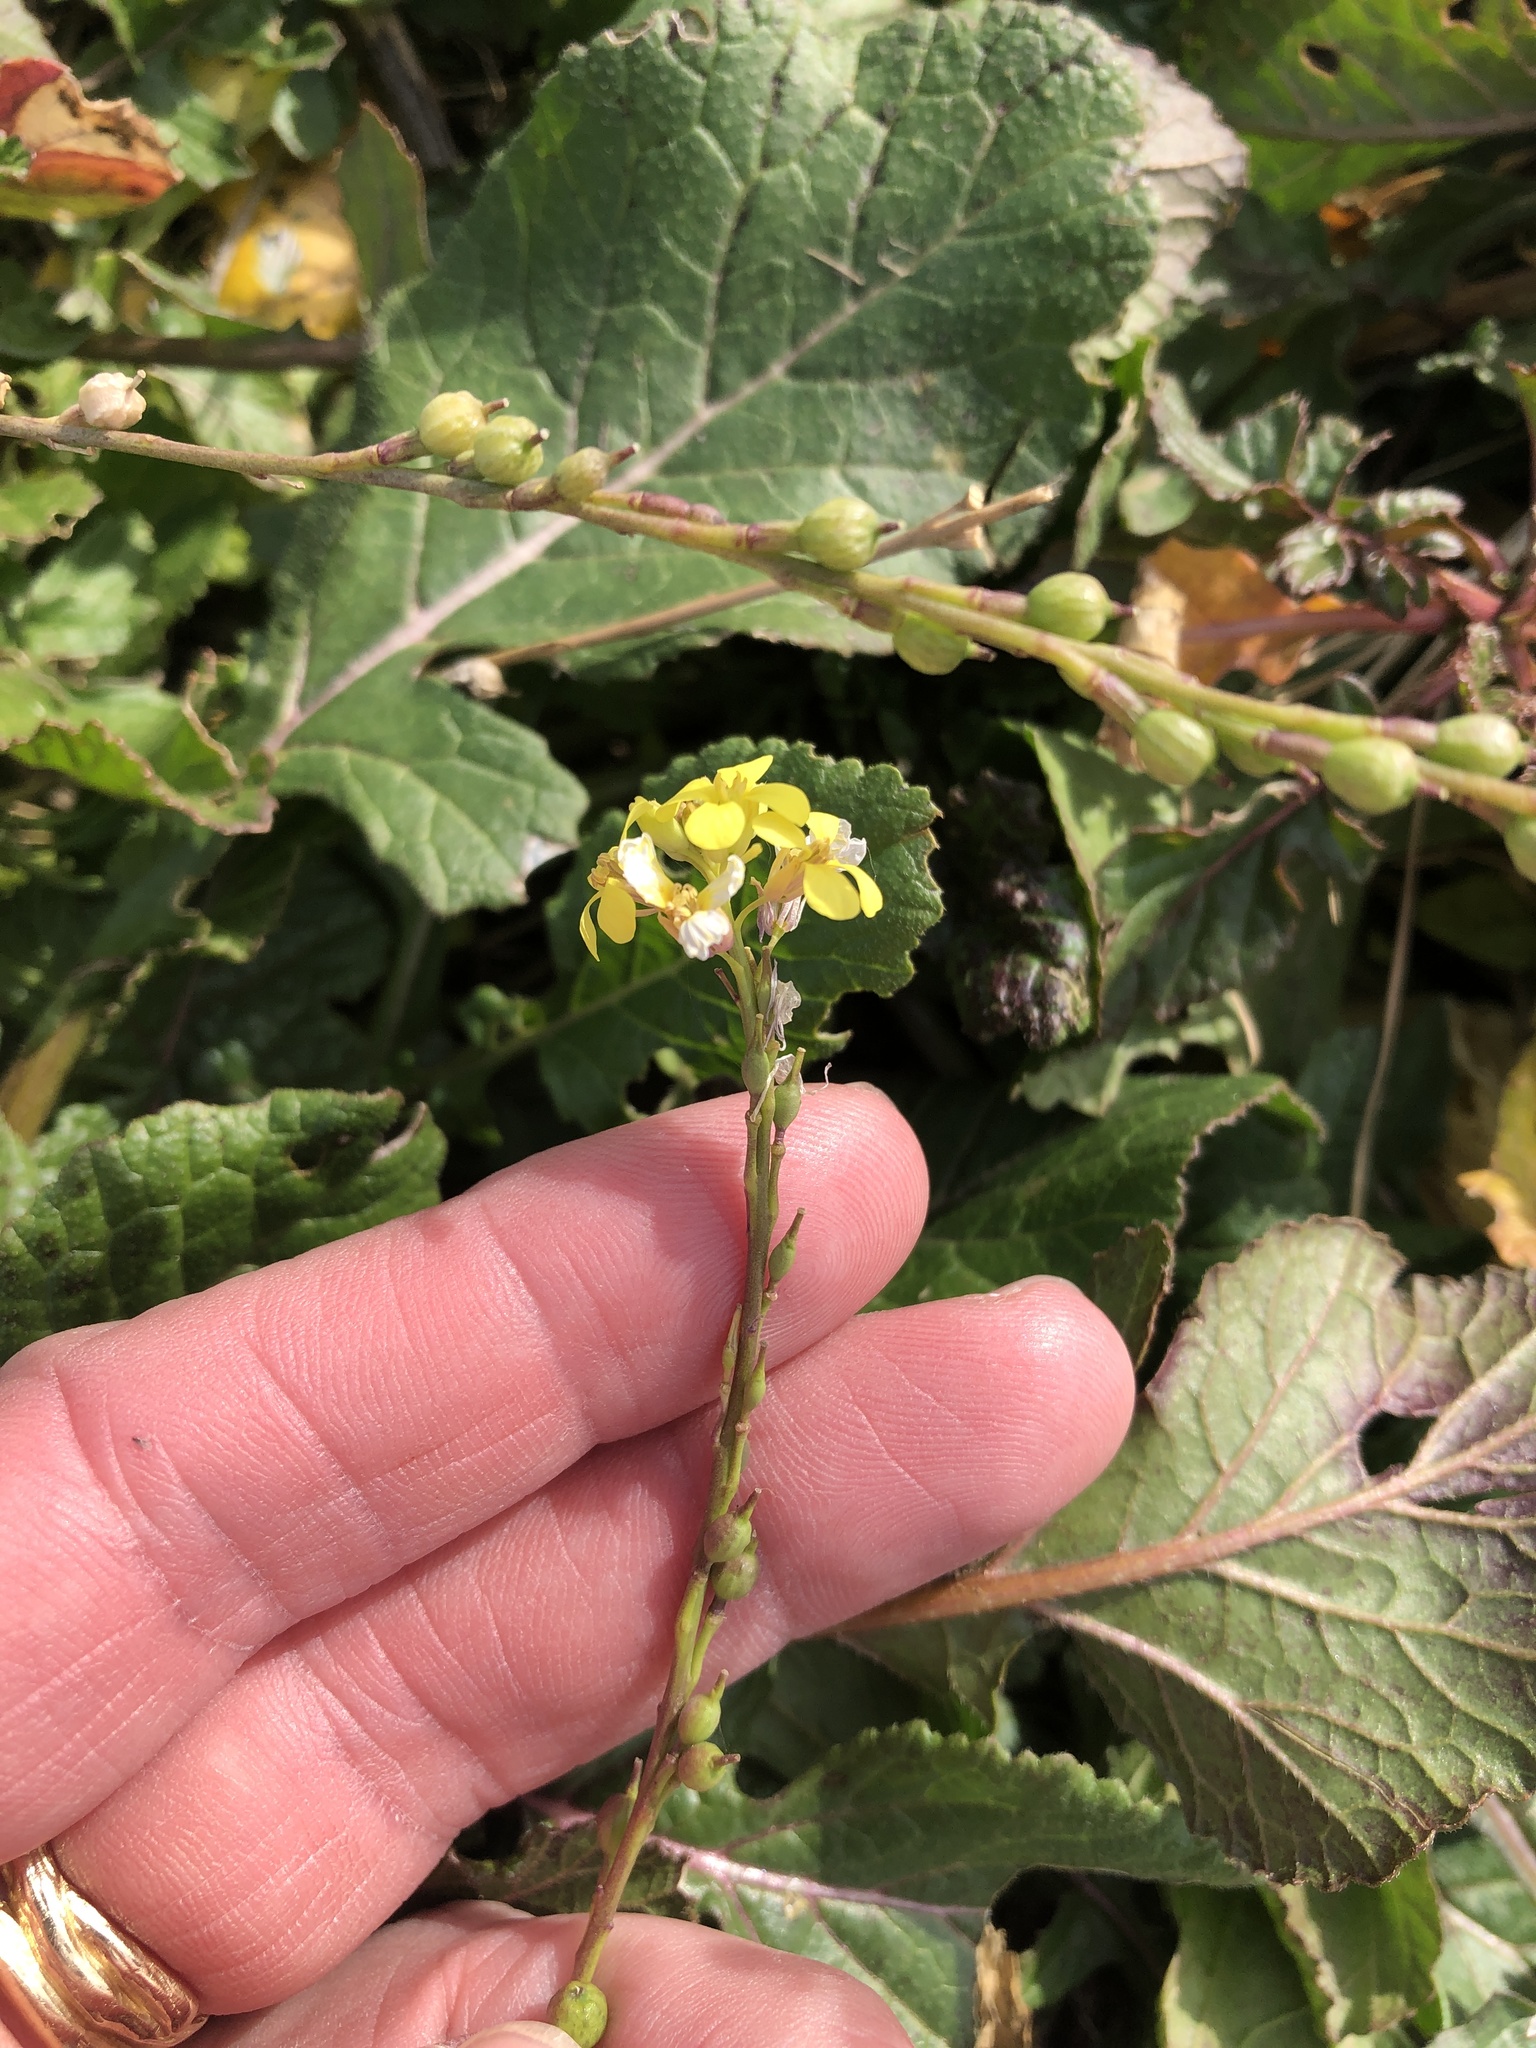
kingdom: Plantae
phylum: Tracheophyta
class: Magnoliopsida
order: Brassicales
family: Brassicaceae
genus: Rapistrum
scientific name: Rapistrum rugosum
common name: Annual bastardcabbage
